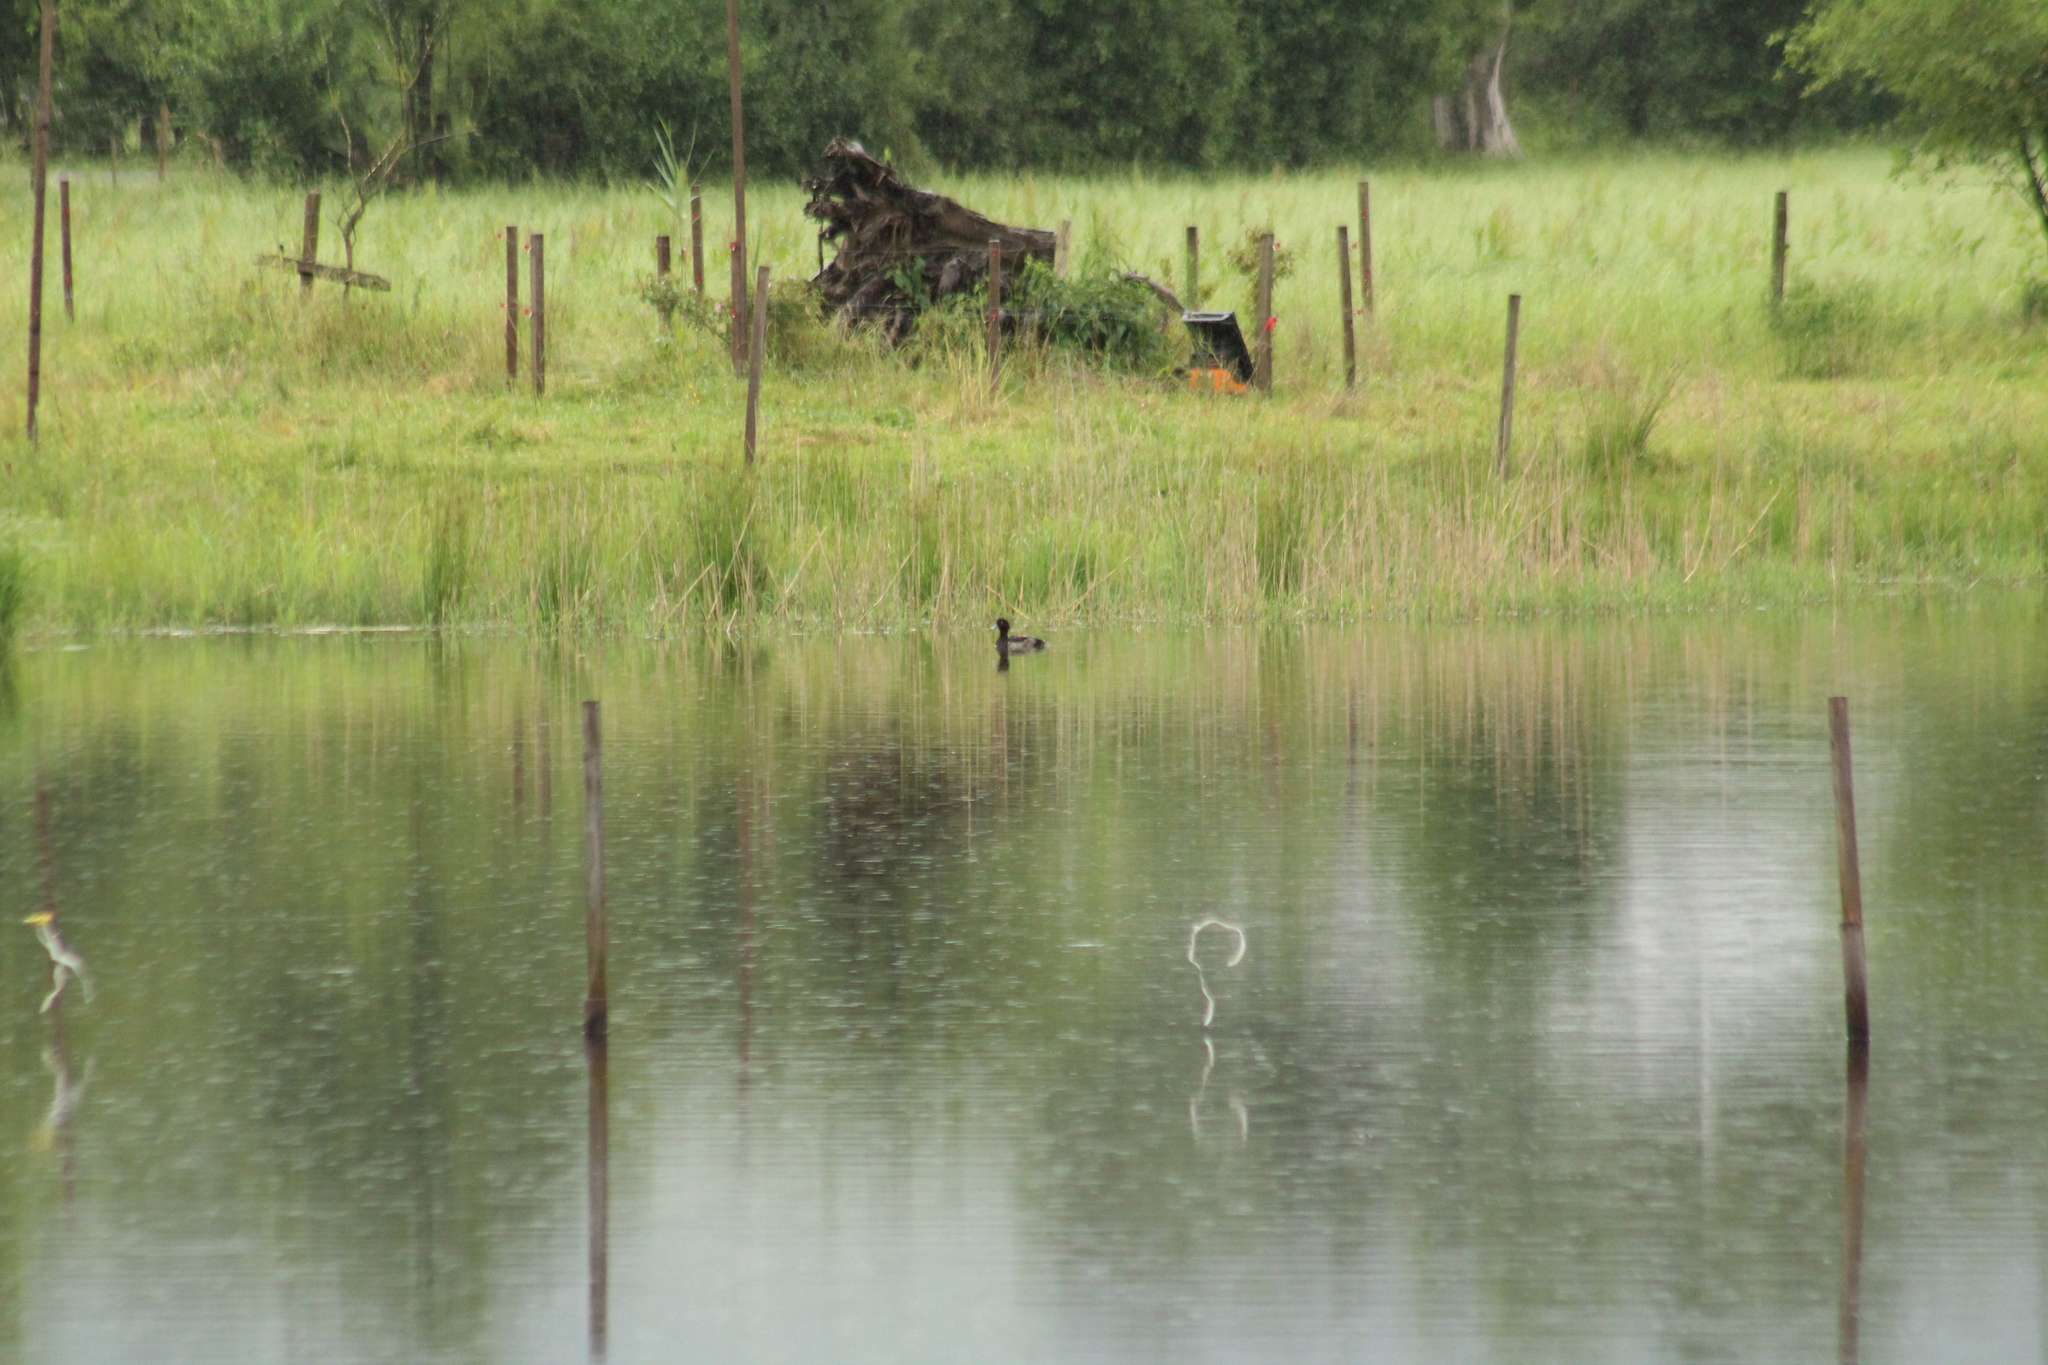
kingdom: Animalia
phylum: Chordata
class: Aves
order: Anseriformes
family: Anatidae
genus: Aythya
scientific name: Aythya fuligula
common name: Tufted duck
